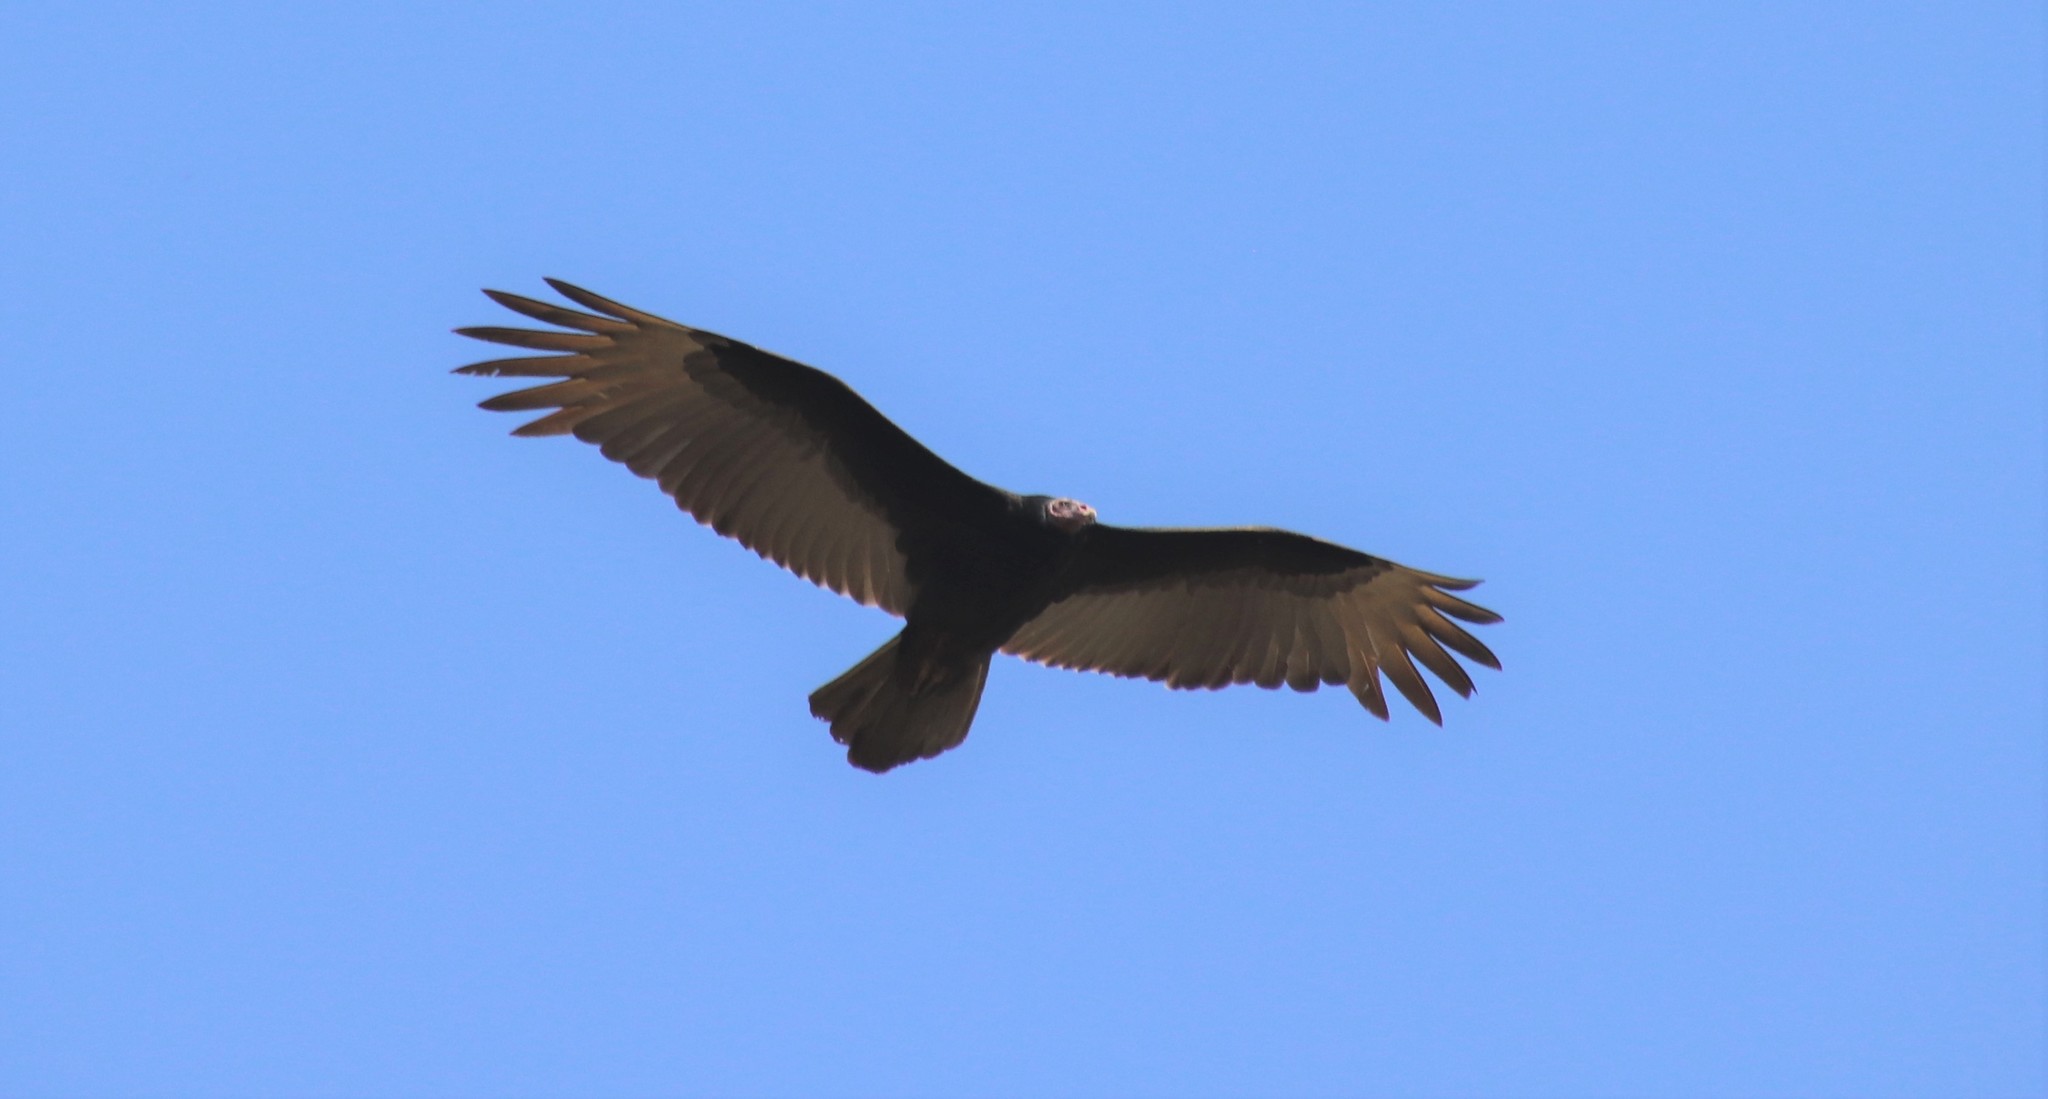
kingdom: Animalia
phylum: Chordata
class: Aves
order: Accipitriformes
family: Cathartidae
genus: Cathartes
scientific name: Cathartes burrovianus
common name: Lesser yellow-headed vulture
